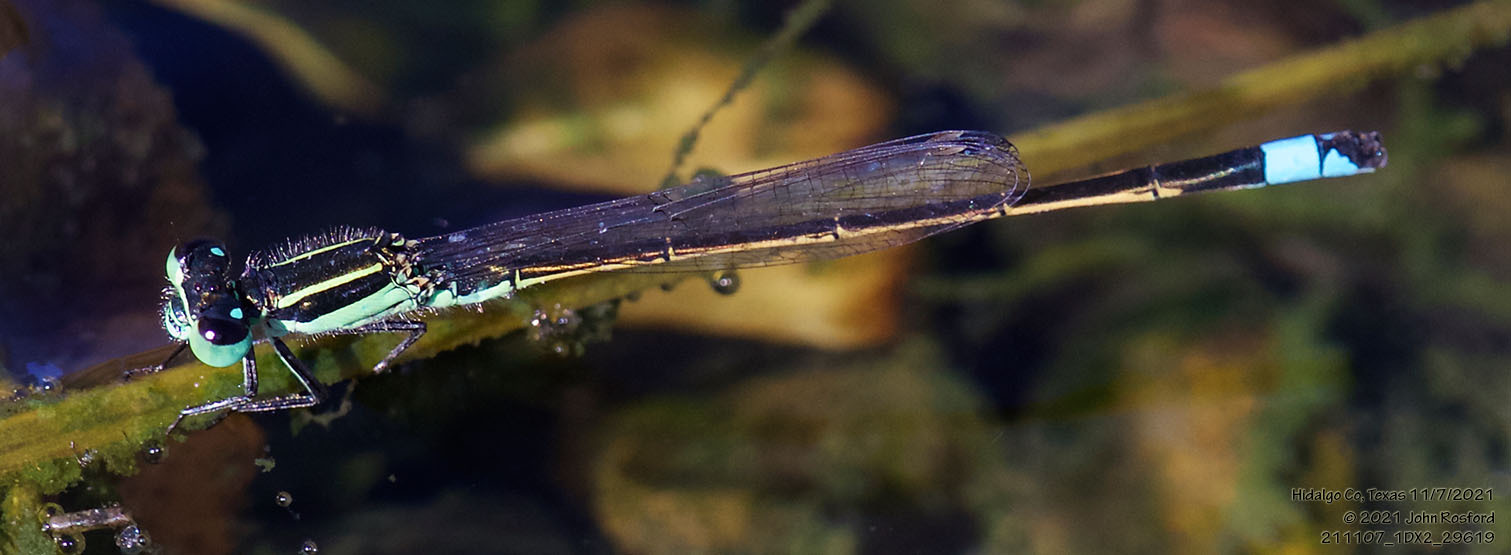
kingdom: Animalia
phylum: Arthropoda
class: Insecta
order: Odonata
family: Coenagrionidae
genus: Ischnura
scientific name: Ischnura ramburii
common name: Rambur's forktail
